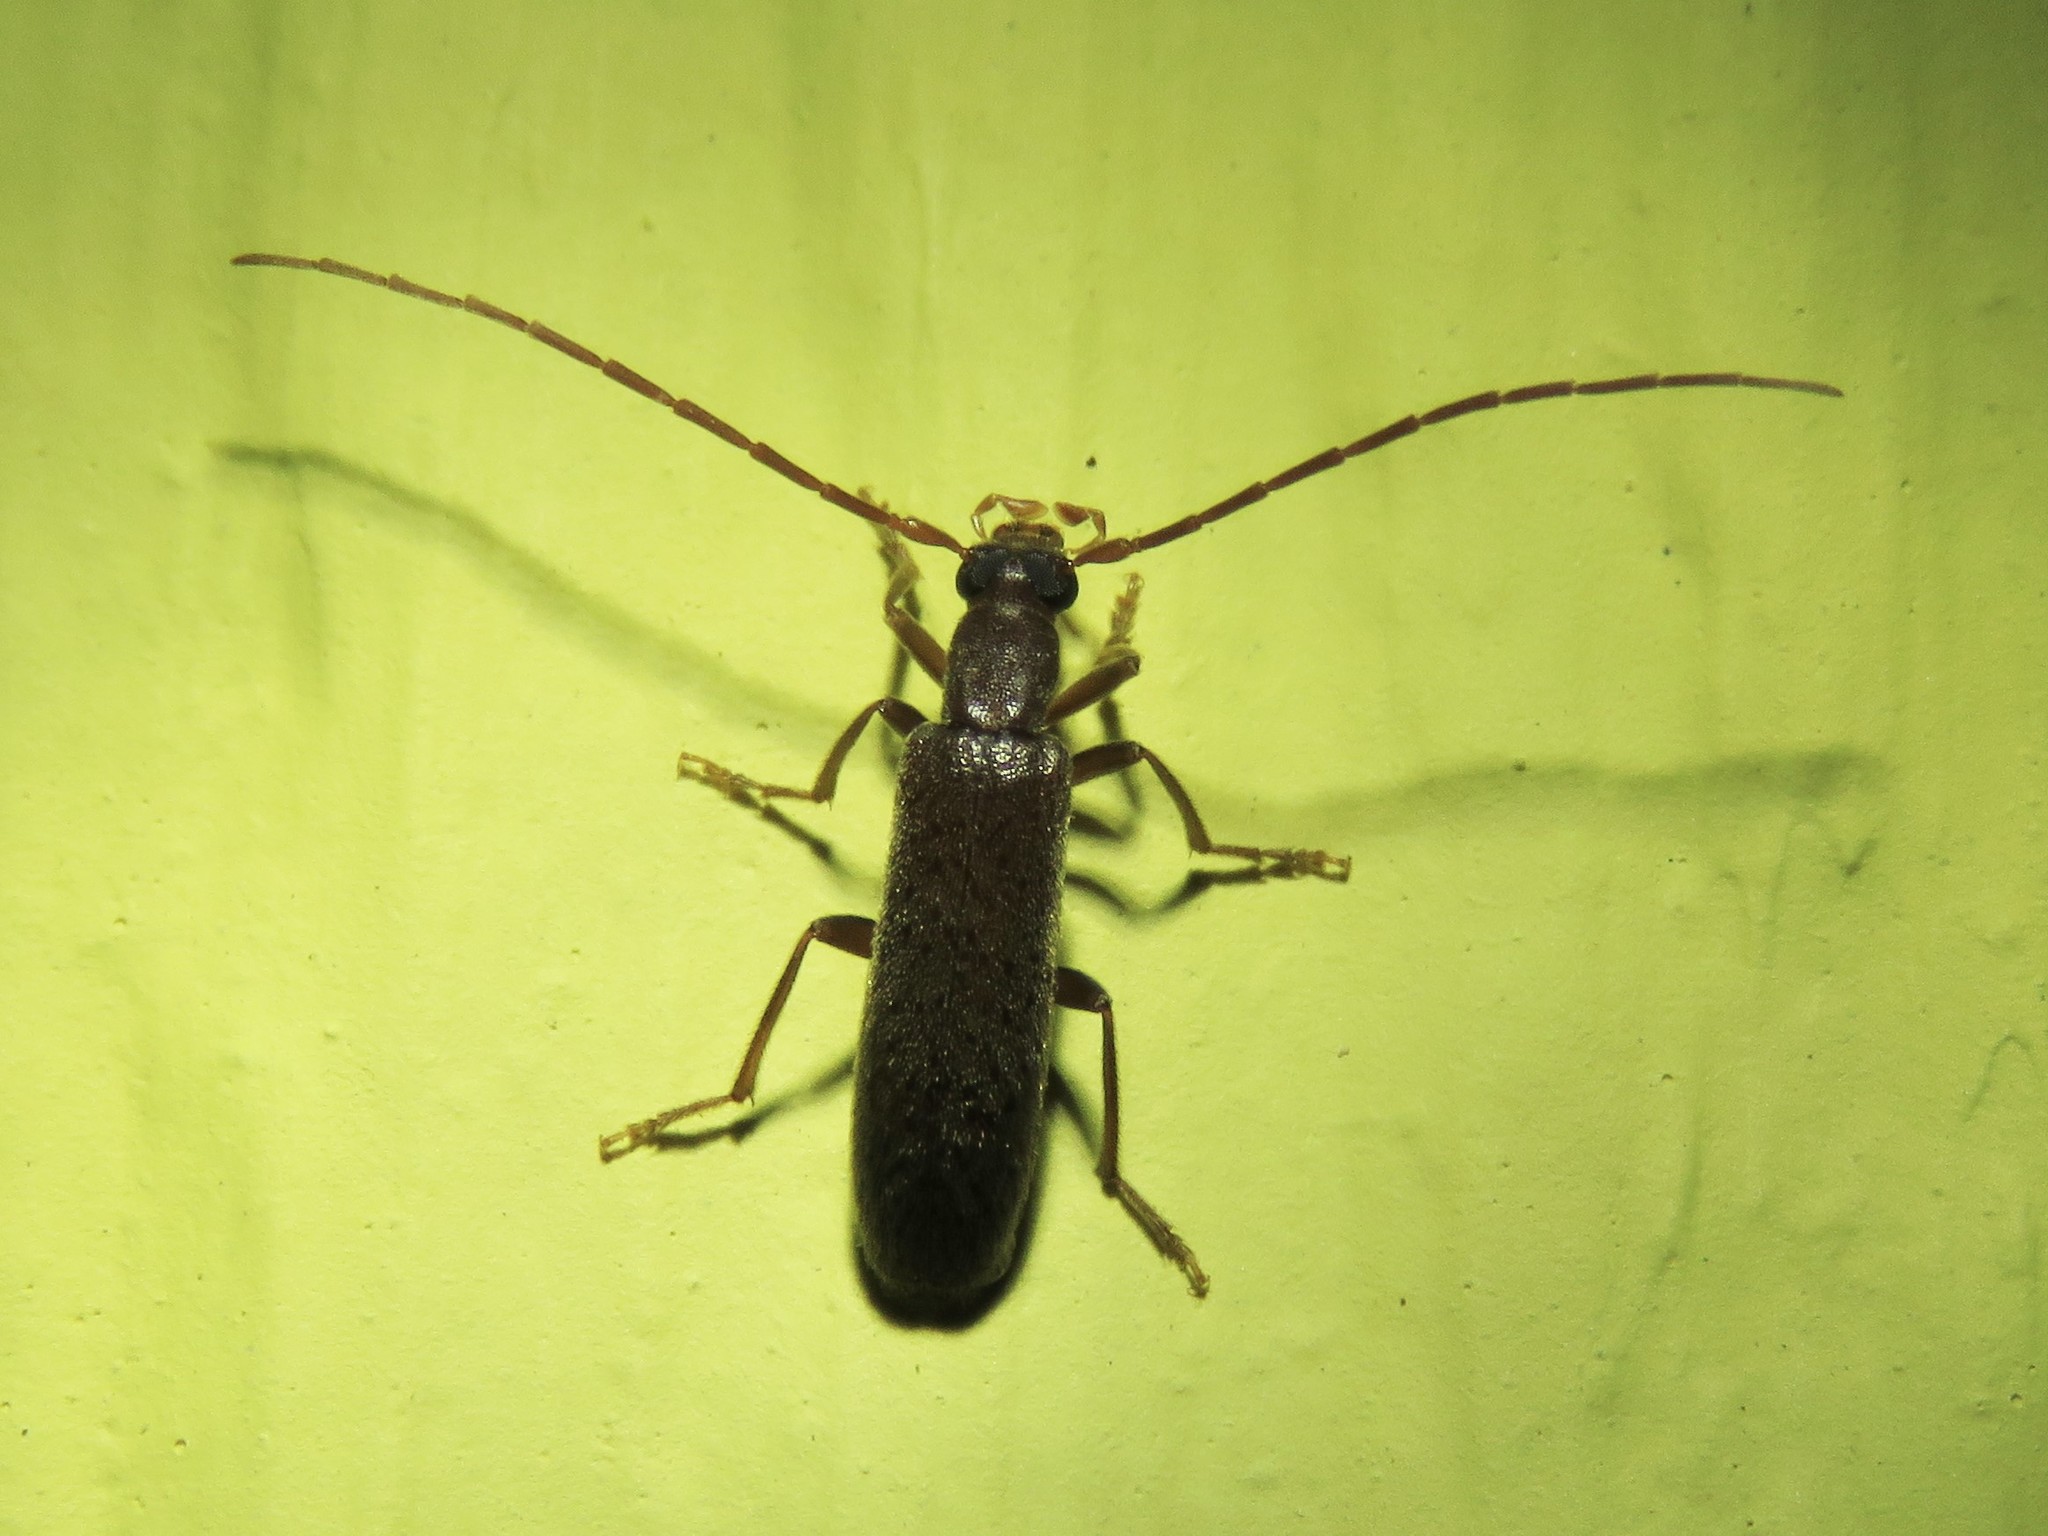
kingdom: Animalia
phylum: Arthropoda
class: Insecta
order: Coleoptera
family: Oedemeridae
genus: Sparedrus
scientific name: Sparedrus aspersus
